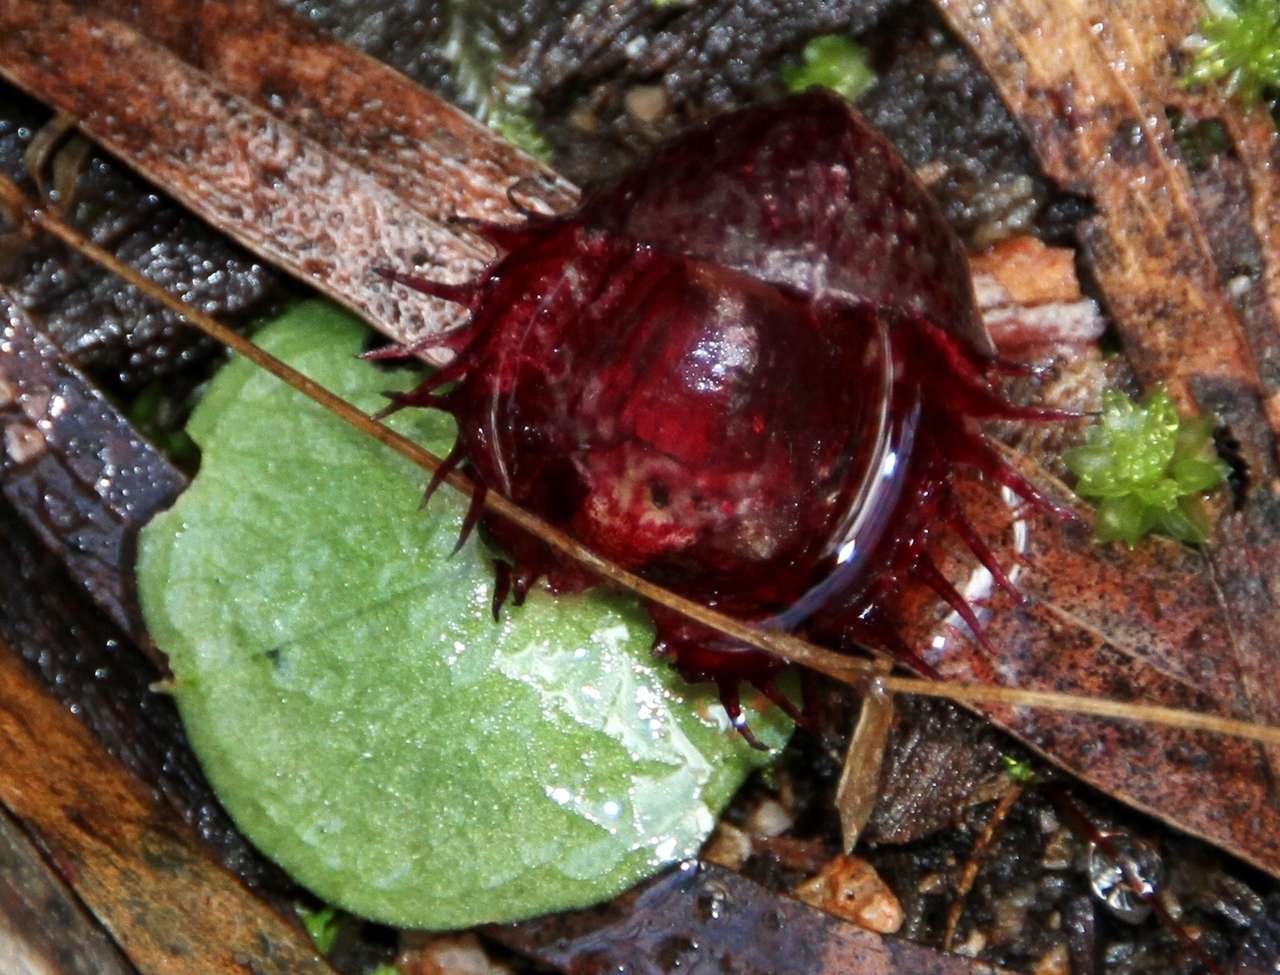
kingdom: Plantae
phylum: Tracheophyta
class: Liliopsida
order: Asparagales
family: Orchidaceae
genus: Corybas
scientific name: Corybas fimbriatus
